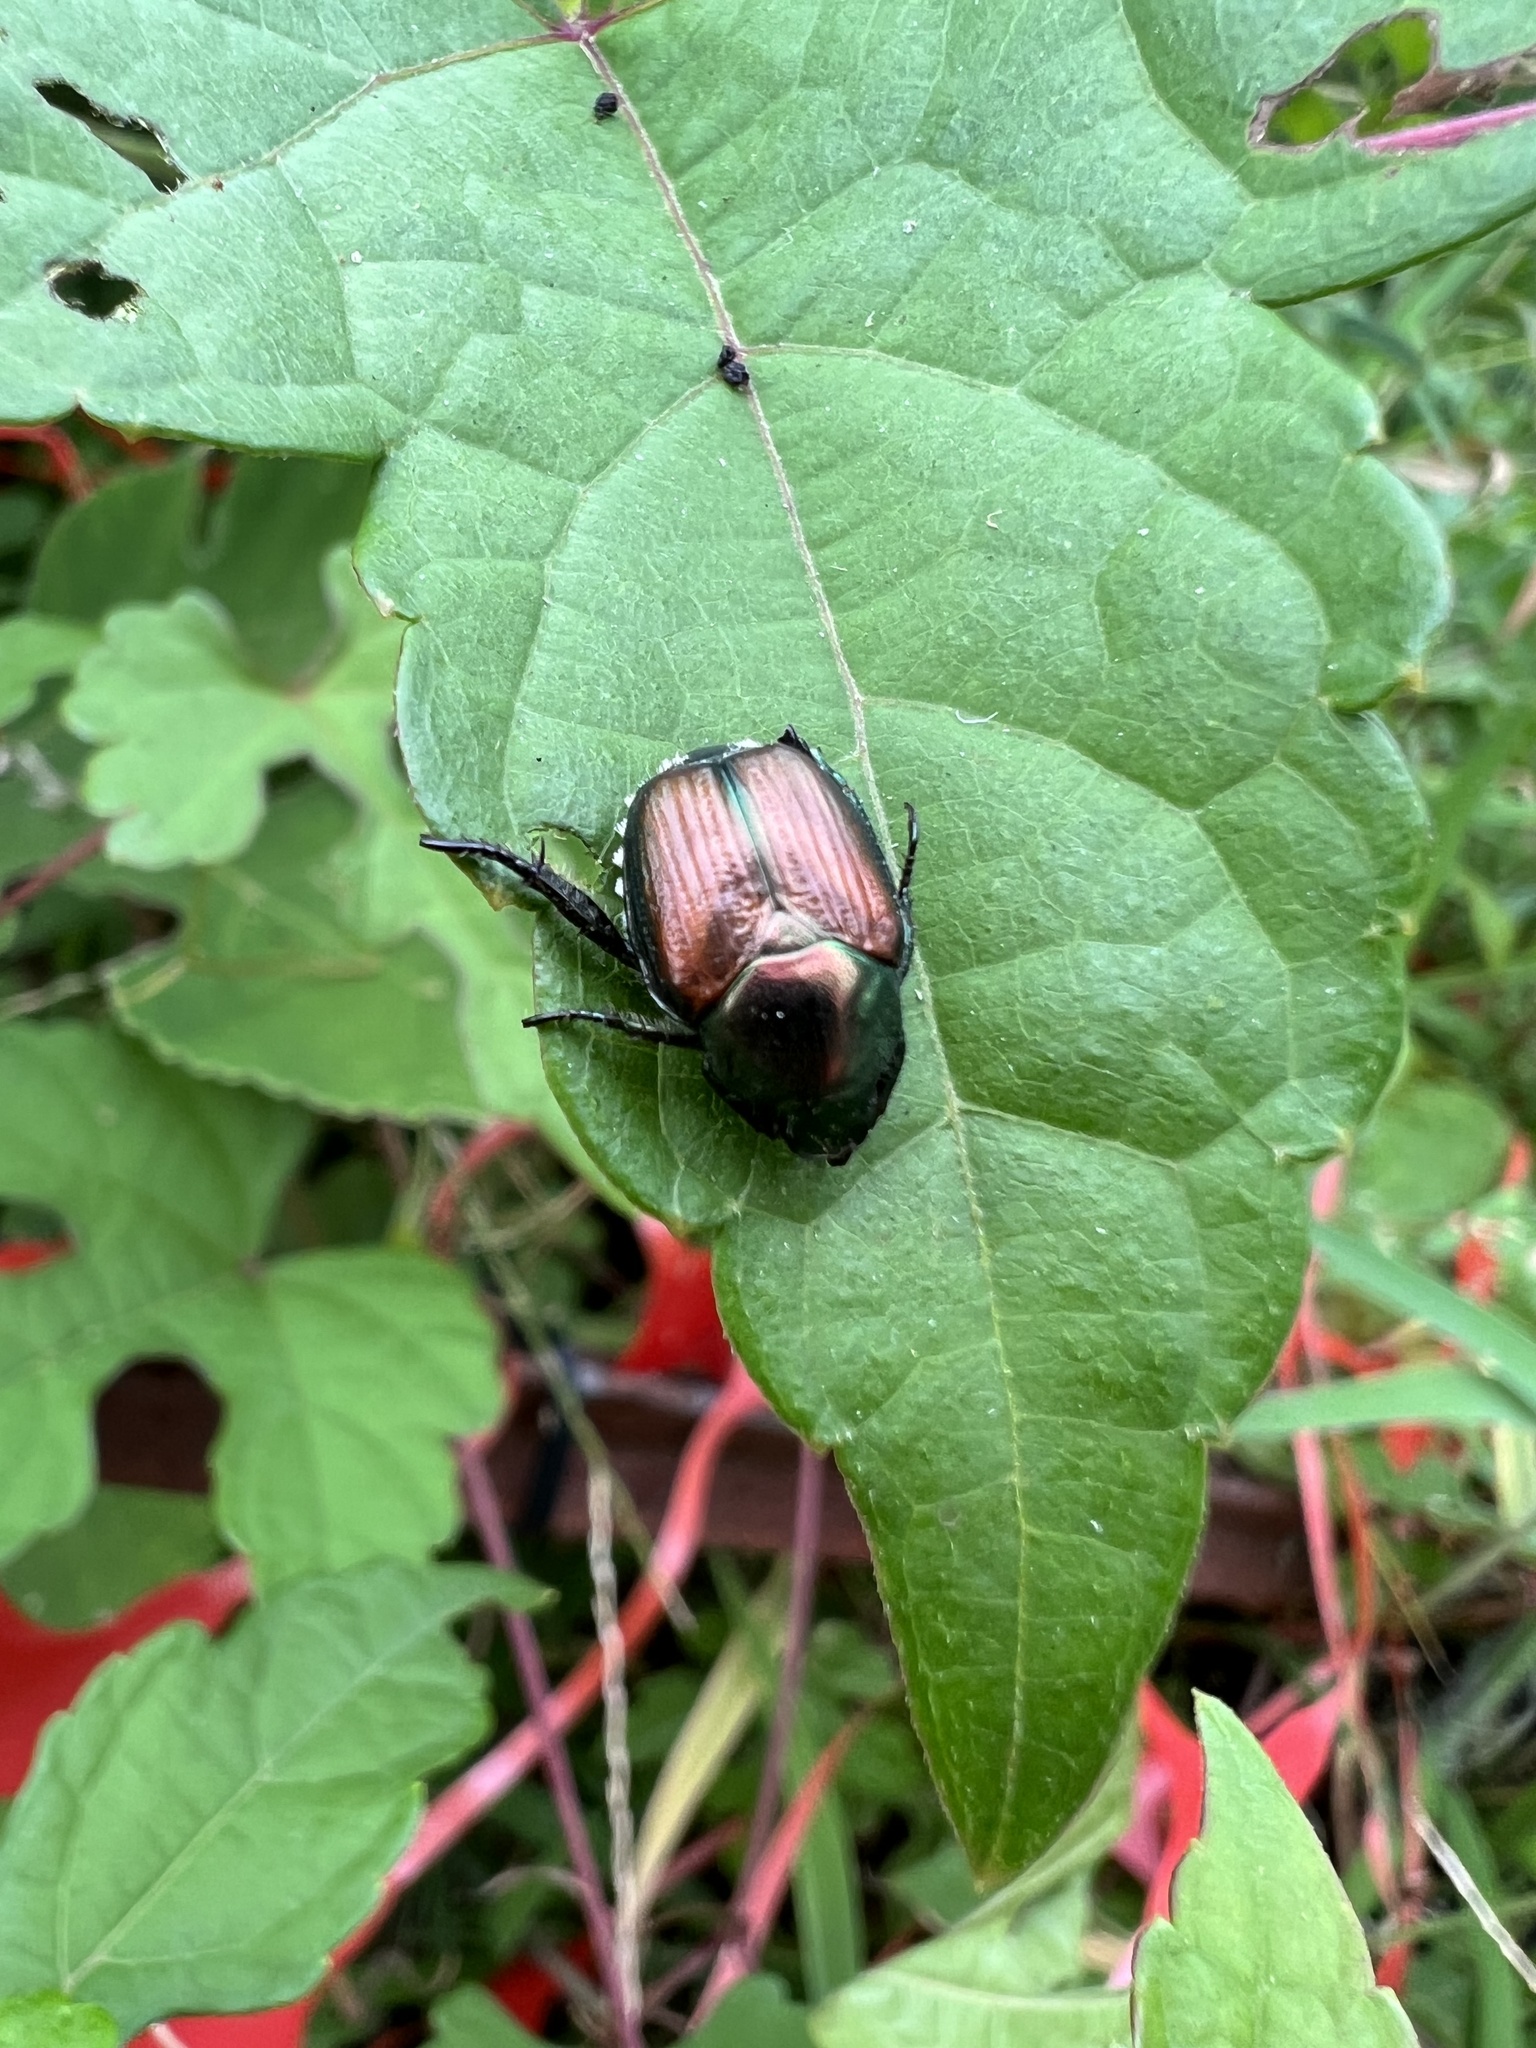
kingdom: Animalia
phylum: Arthropoda
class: Insecta
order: Coleoptera
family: Scarabaeidae
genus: Popillia
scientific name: Popillia japonica
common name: Japanese beetle
